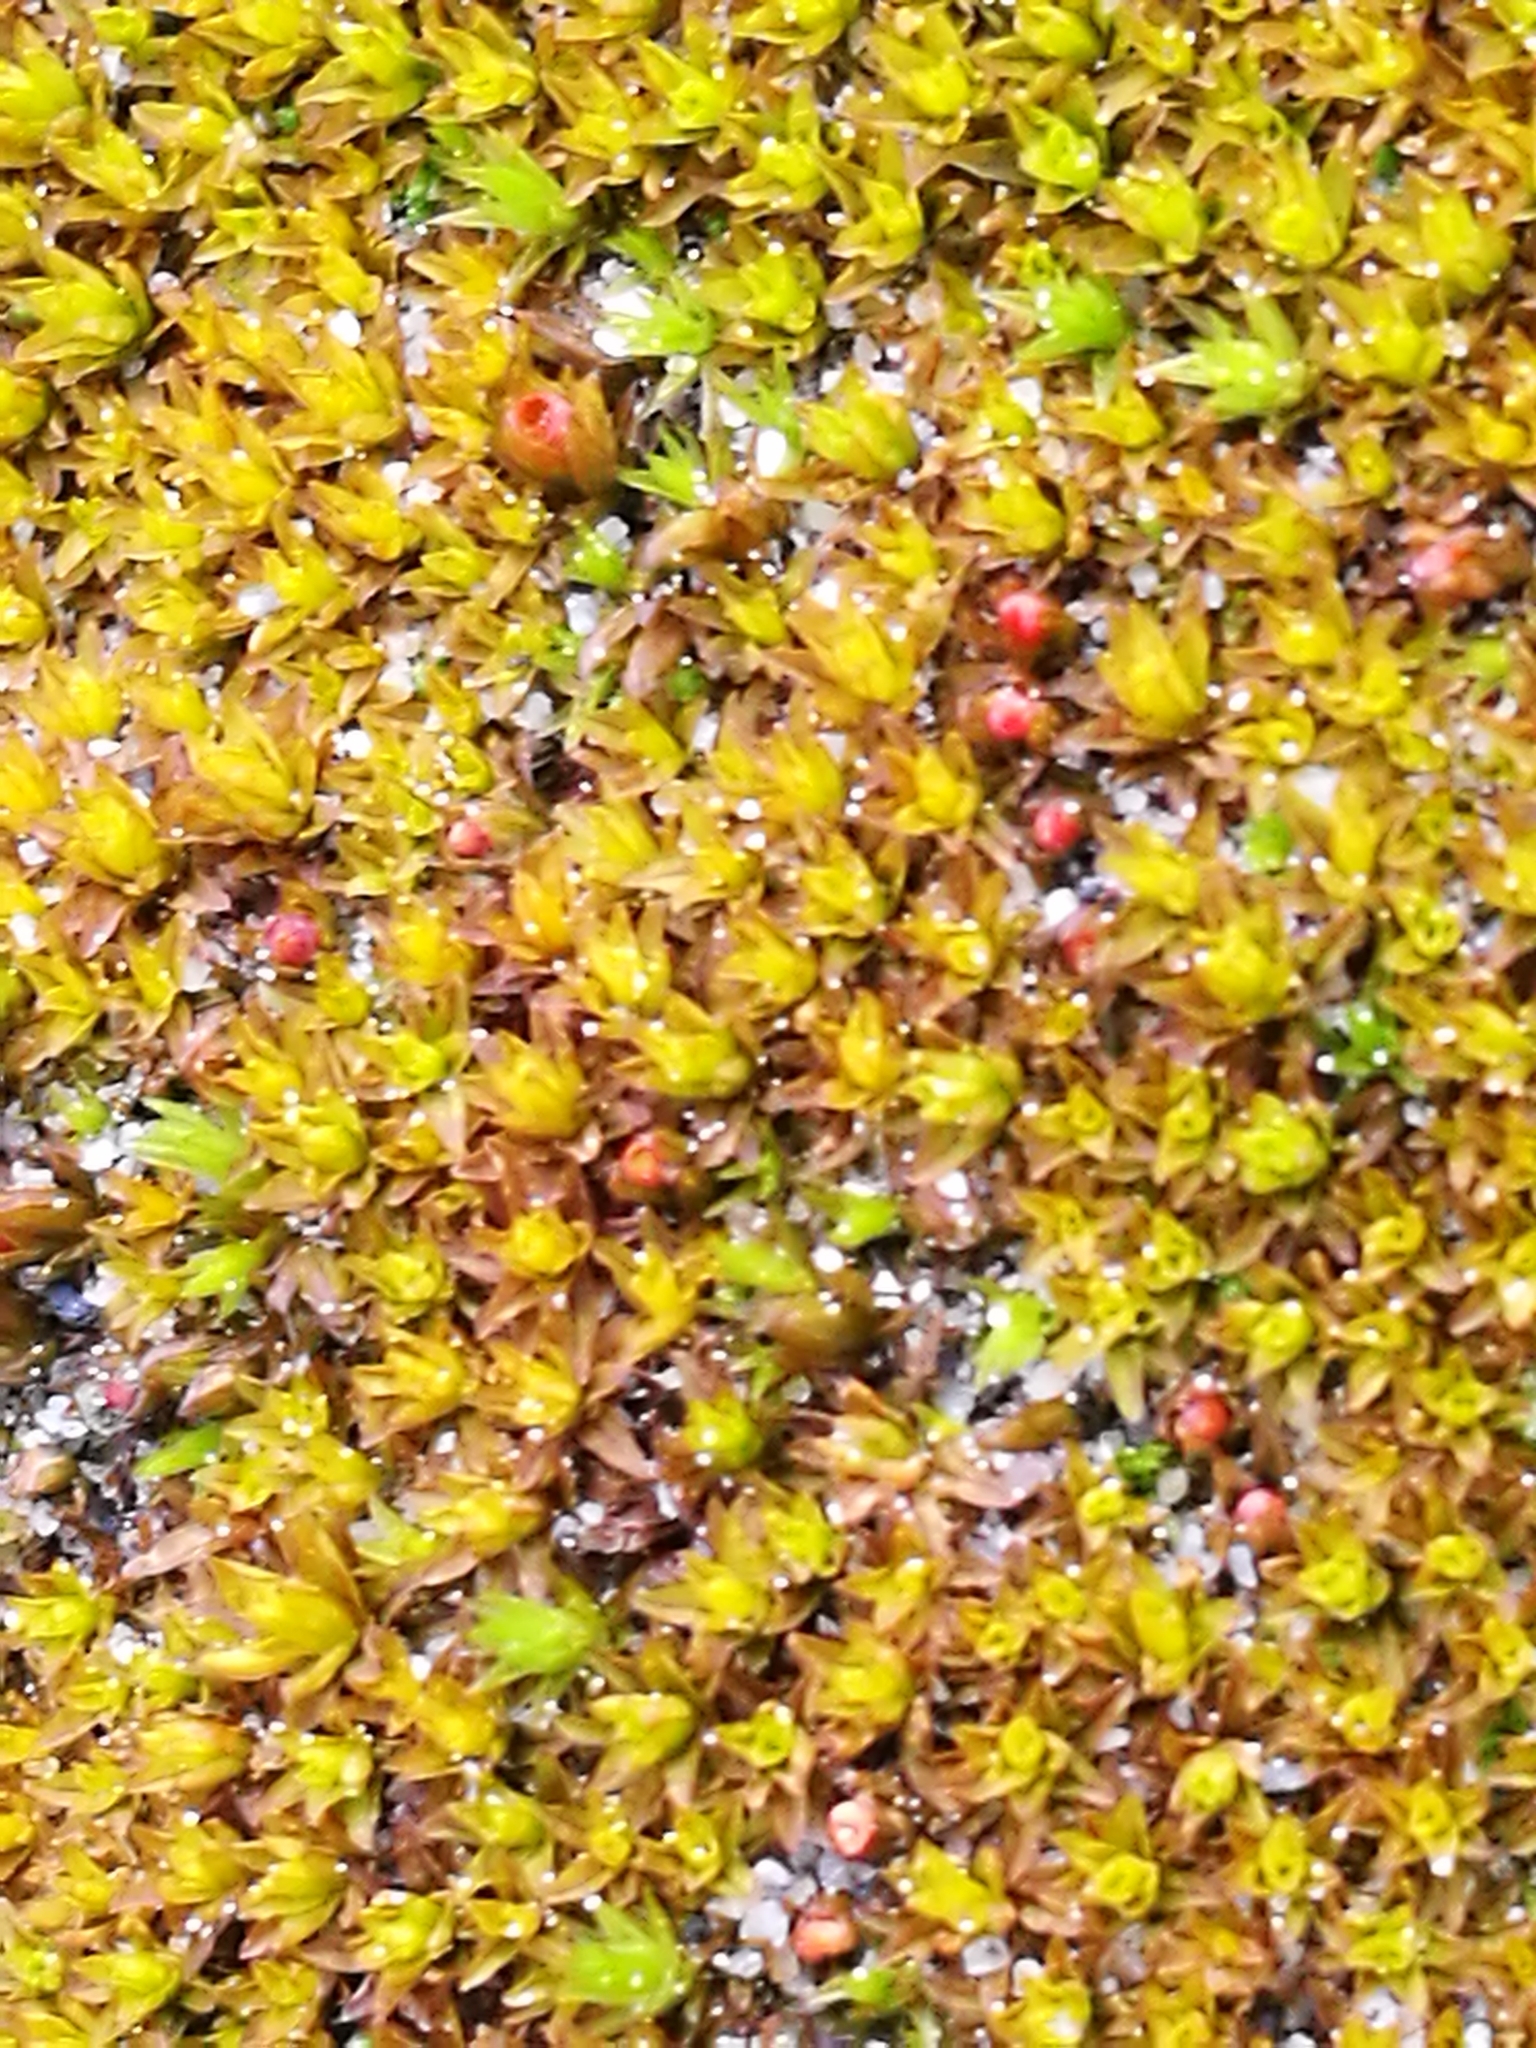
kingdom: Plantae
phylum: Tracheophyta
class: Magnoliopsida
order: Caryophyllales
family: Caryophyllaceae
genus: Scleranthus
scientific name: Scleranthus uniflorus
